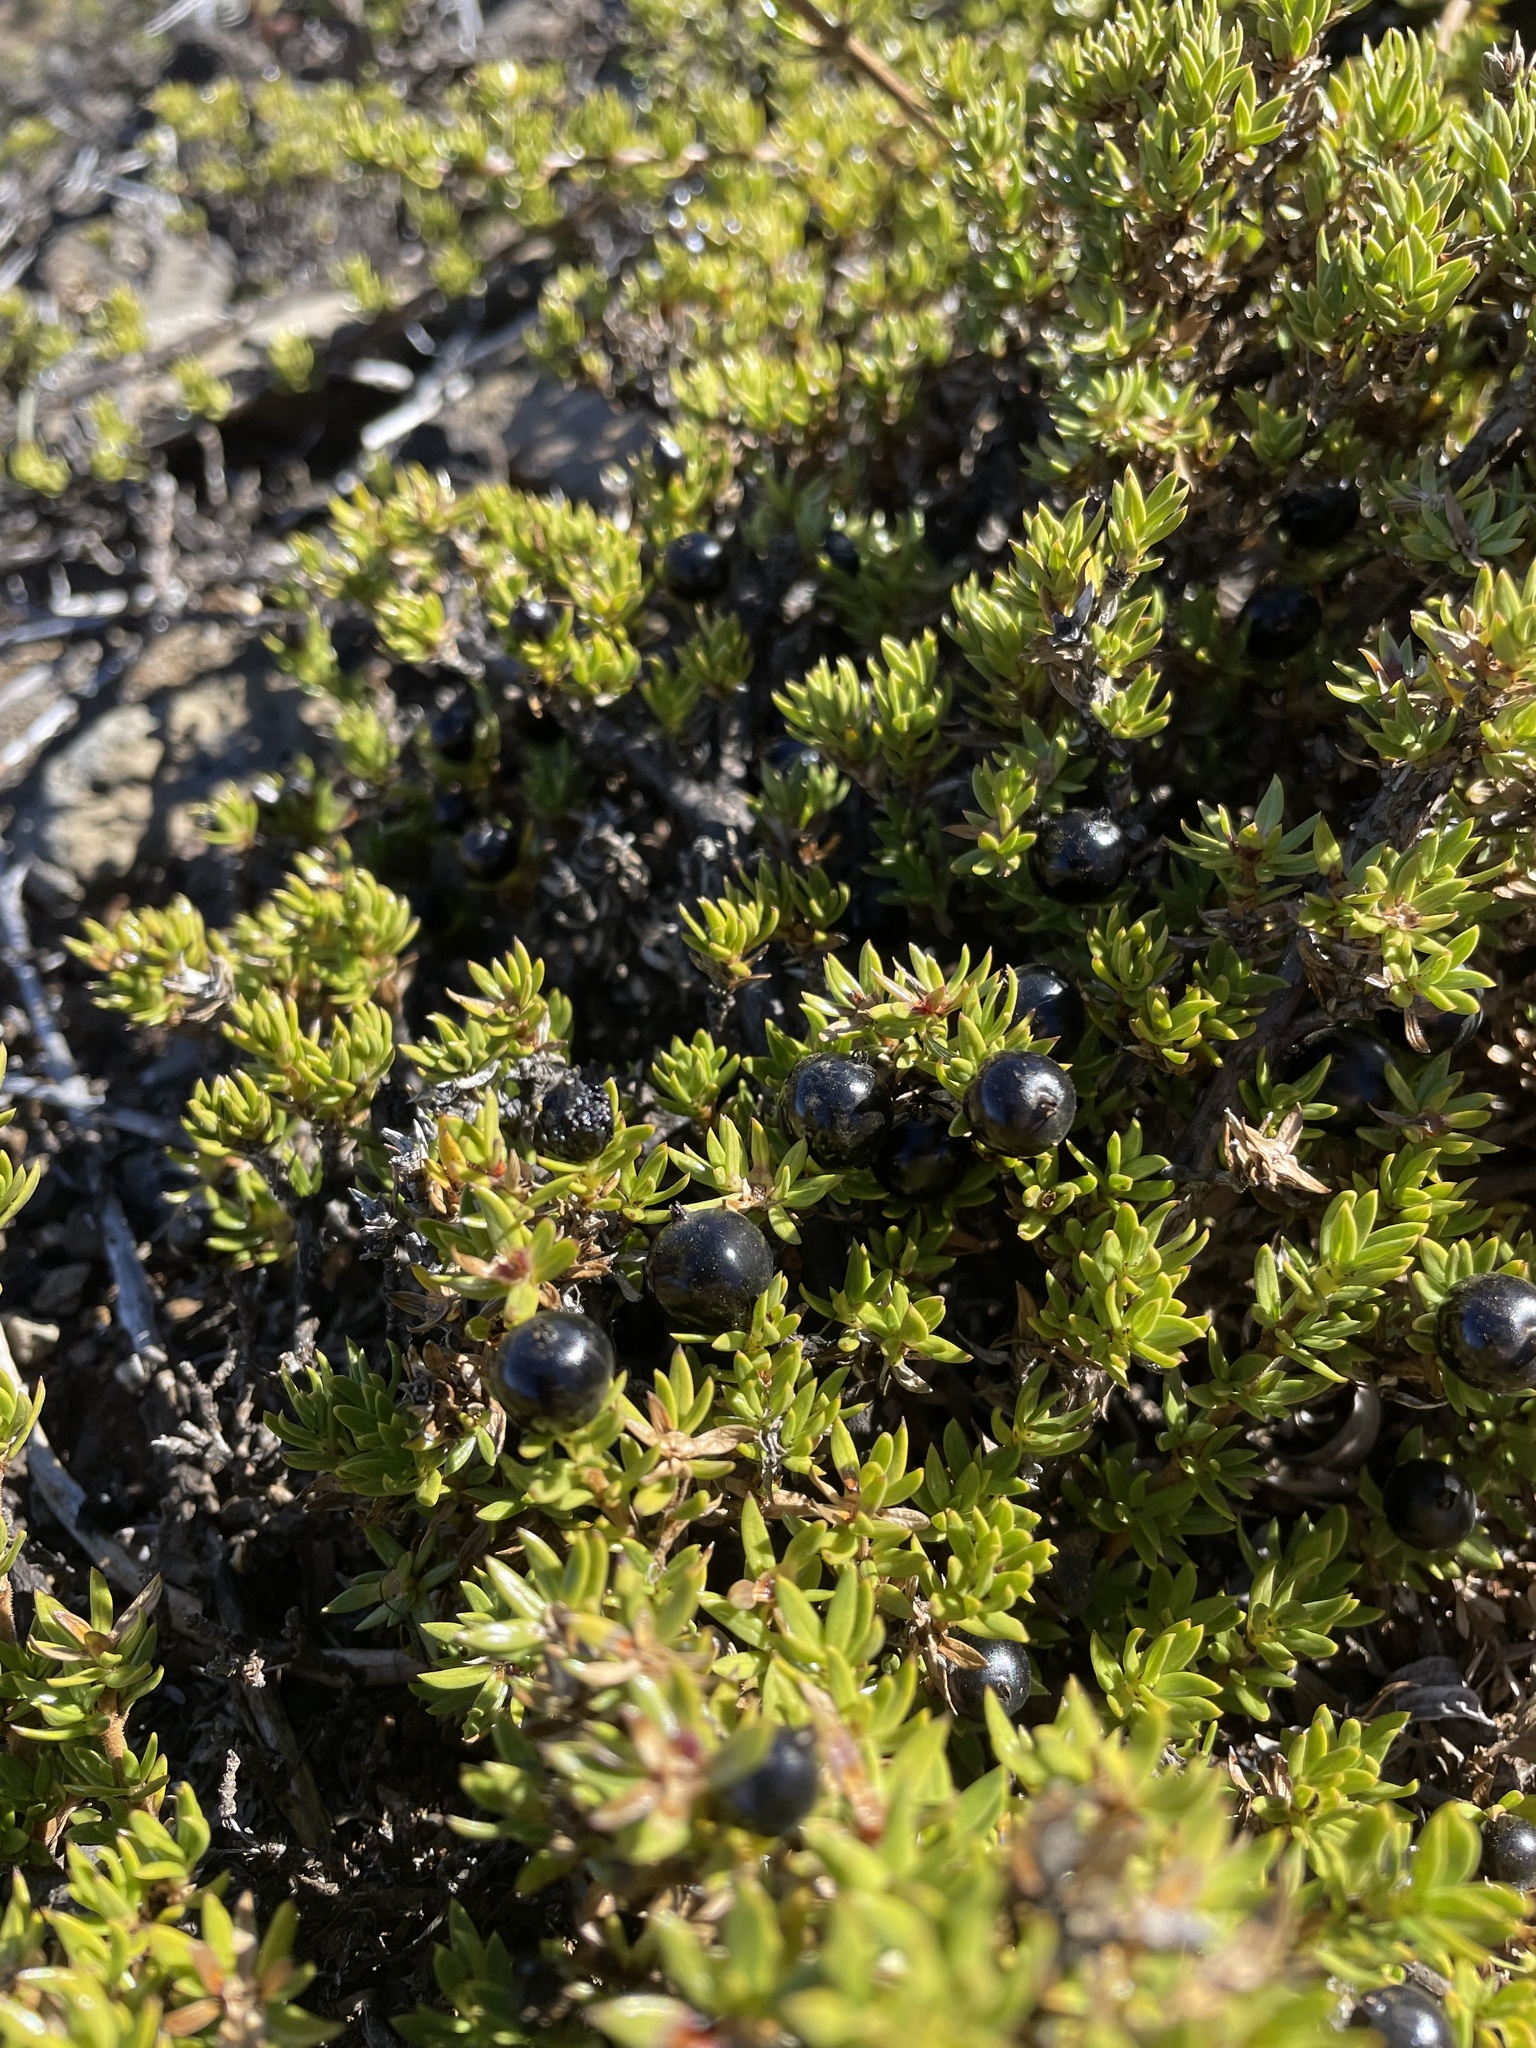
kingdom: Plantae
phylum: Tracheophyta
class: Magnoliopsida
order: Ericales
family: Ericaceae
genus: Leptecophylla
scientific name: Leptecophylla tameiameiae
